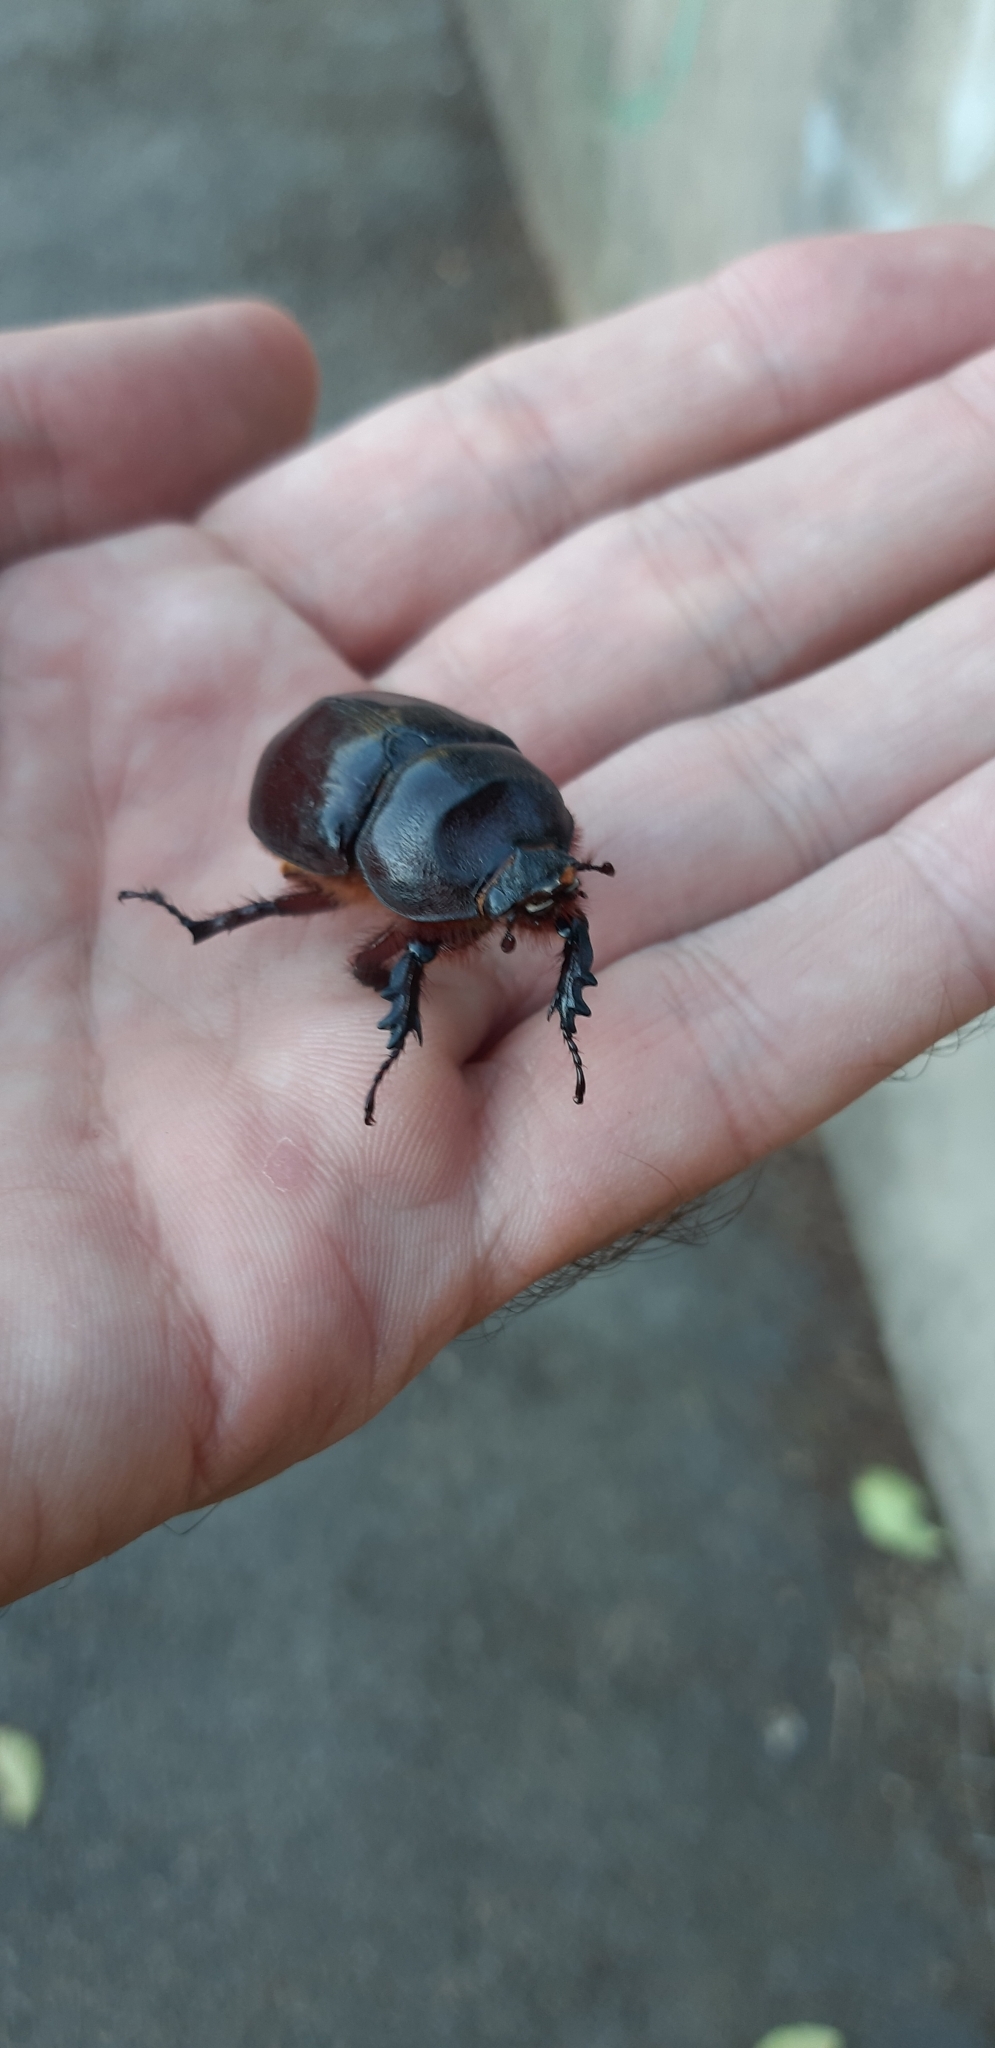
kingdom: Animalia
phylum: Arthropoda
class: Insecta
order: Coleoptera
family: Scarabaeidae
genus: Oryctes
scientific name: Oryctes nasicornis
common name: European rhinoceros beetle
